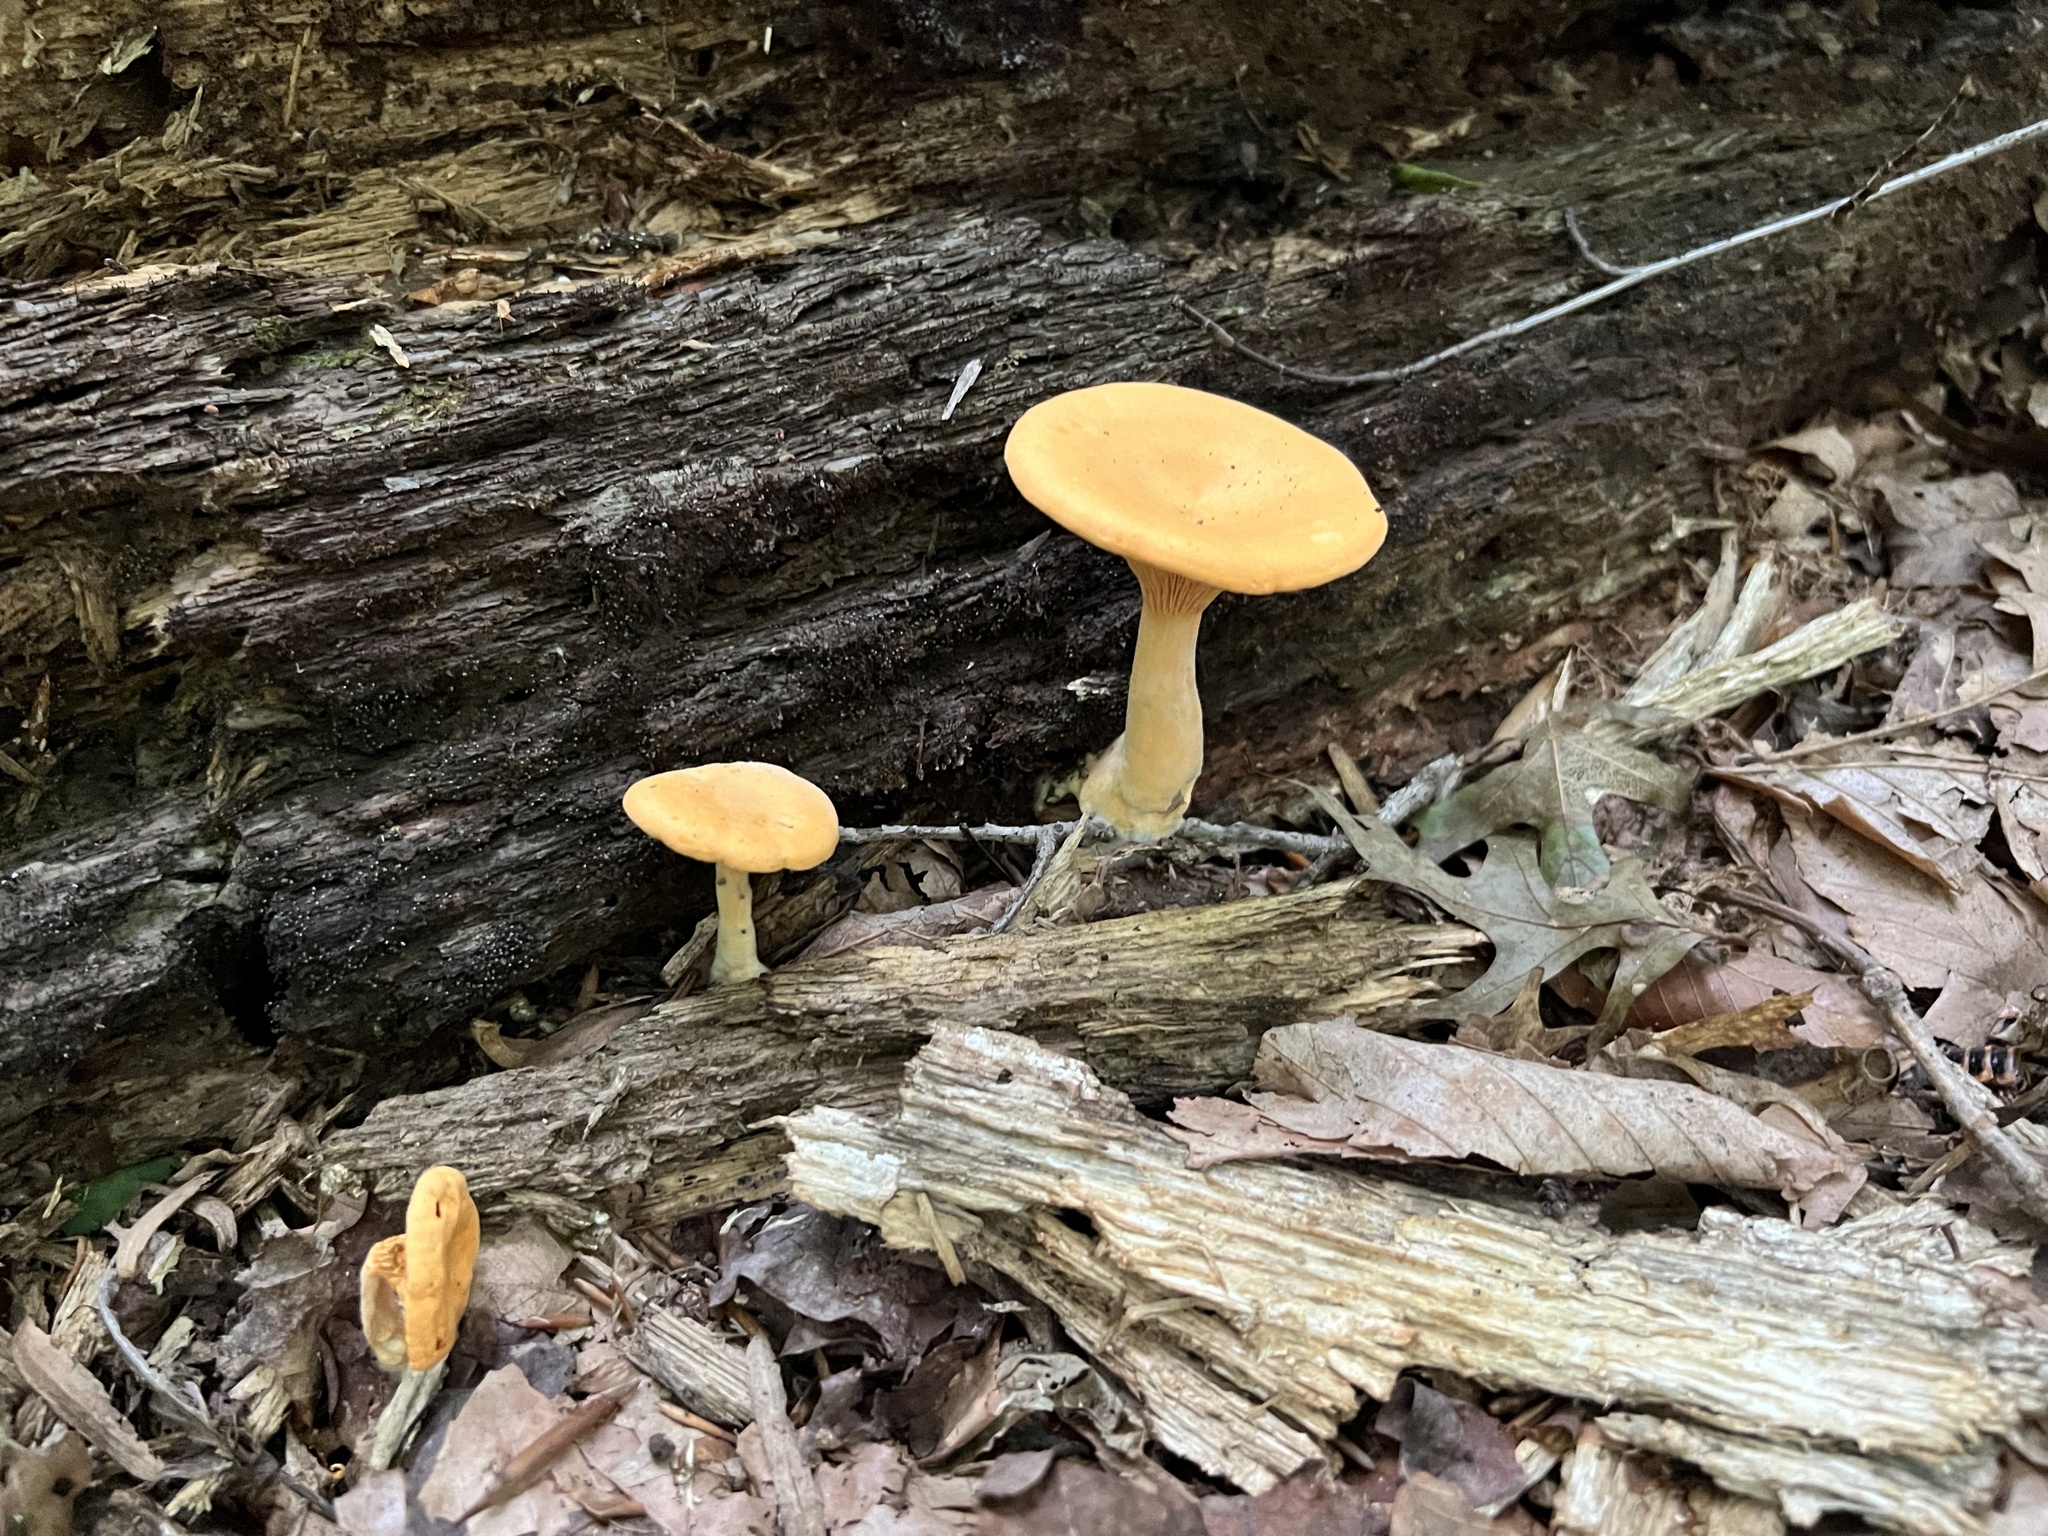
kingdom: Fungi
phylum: Basidiomycota
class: Agaricomycetes
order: Boletales
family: Hygrophoropsidaceae
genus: Hygrophoropsis
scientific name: Hygrophoropsis aurantiaca
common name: False chanterelle
